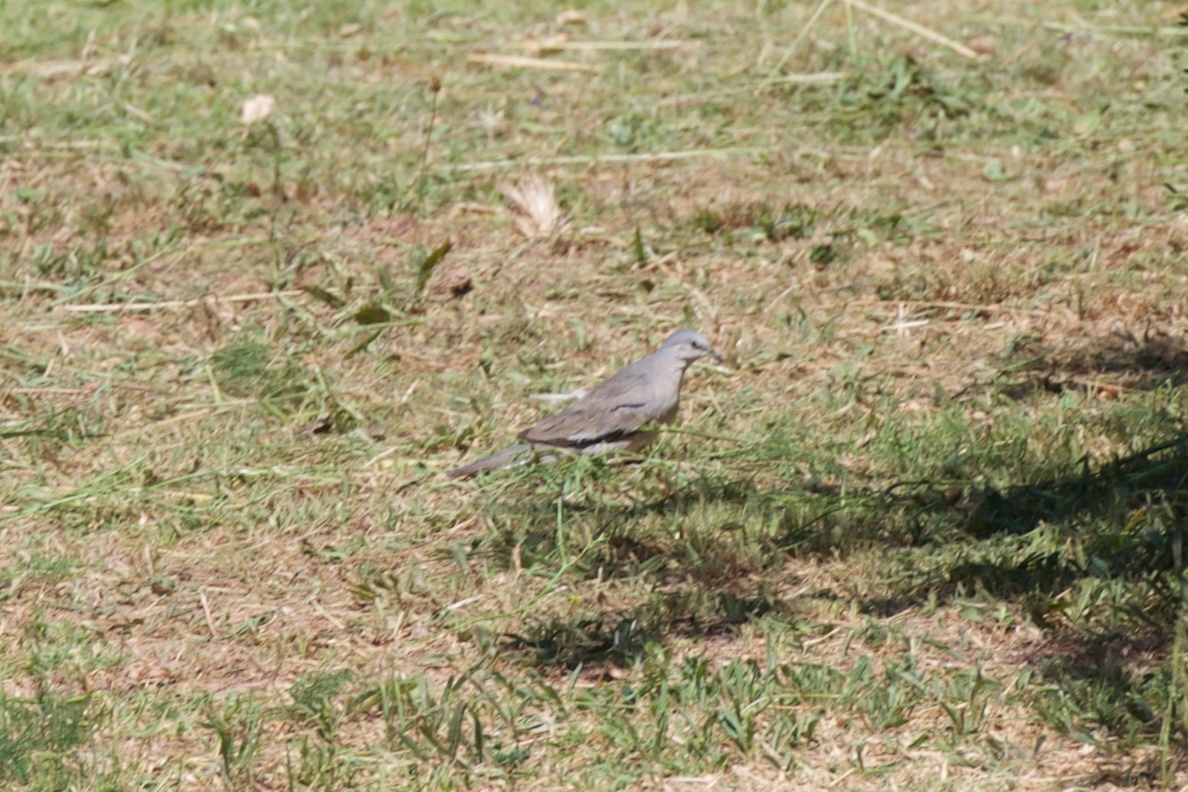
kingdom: Animalia
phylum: Chordata
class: Aves
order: Columbiformes
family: Columbidae
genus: Columbina
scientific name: Columbina picui
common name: Picui ground dove
